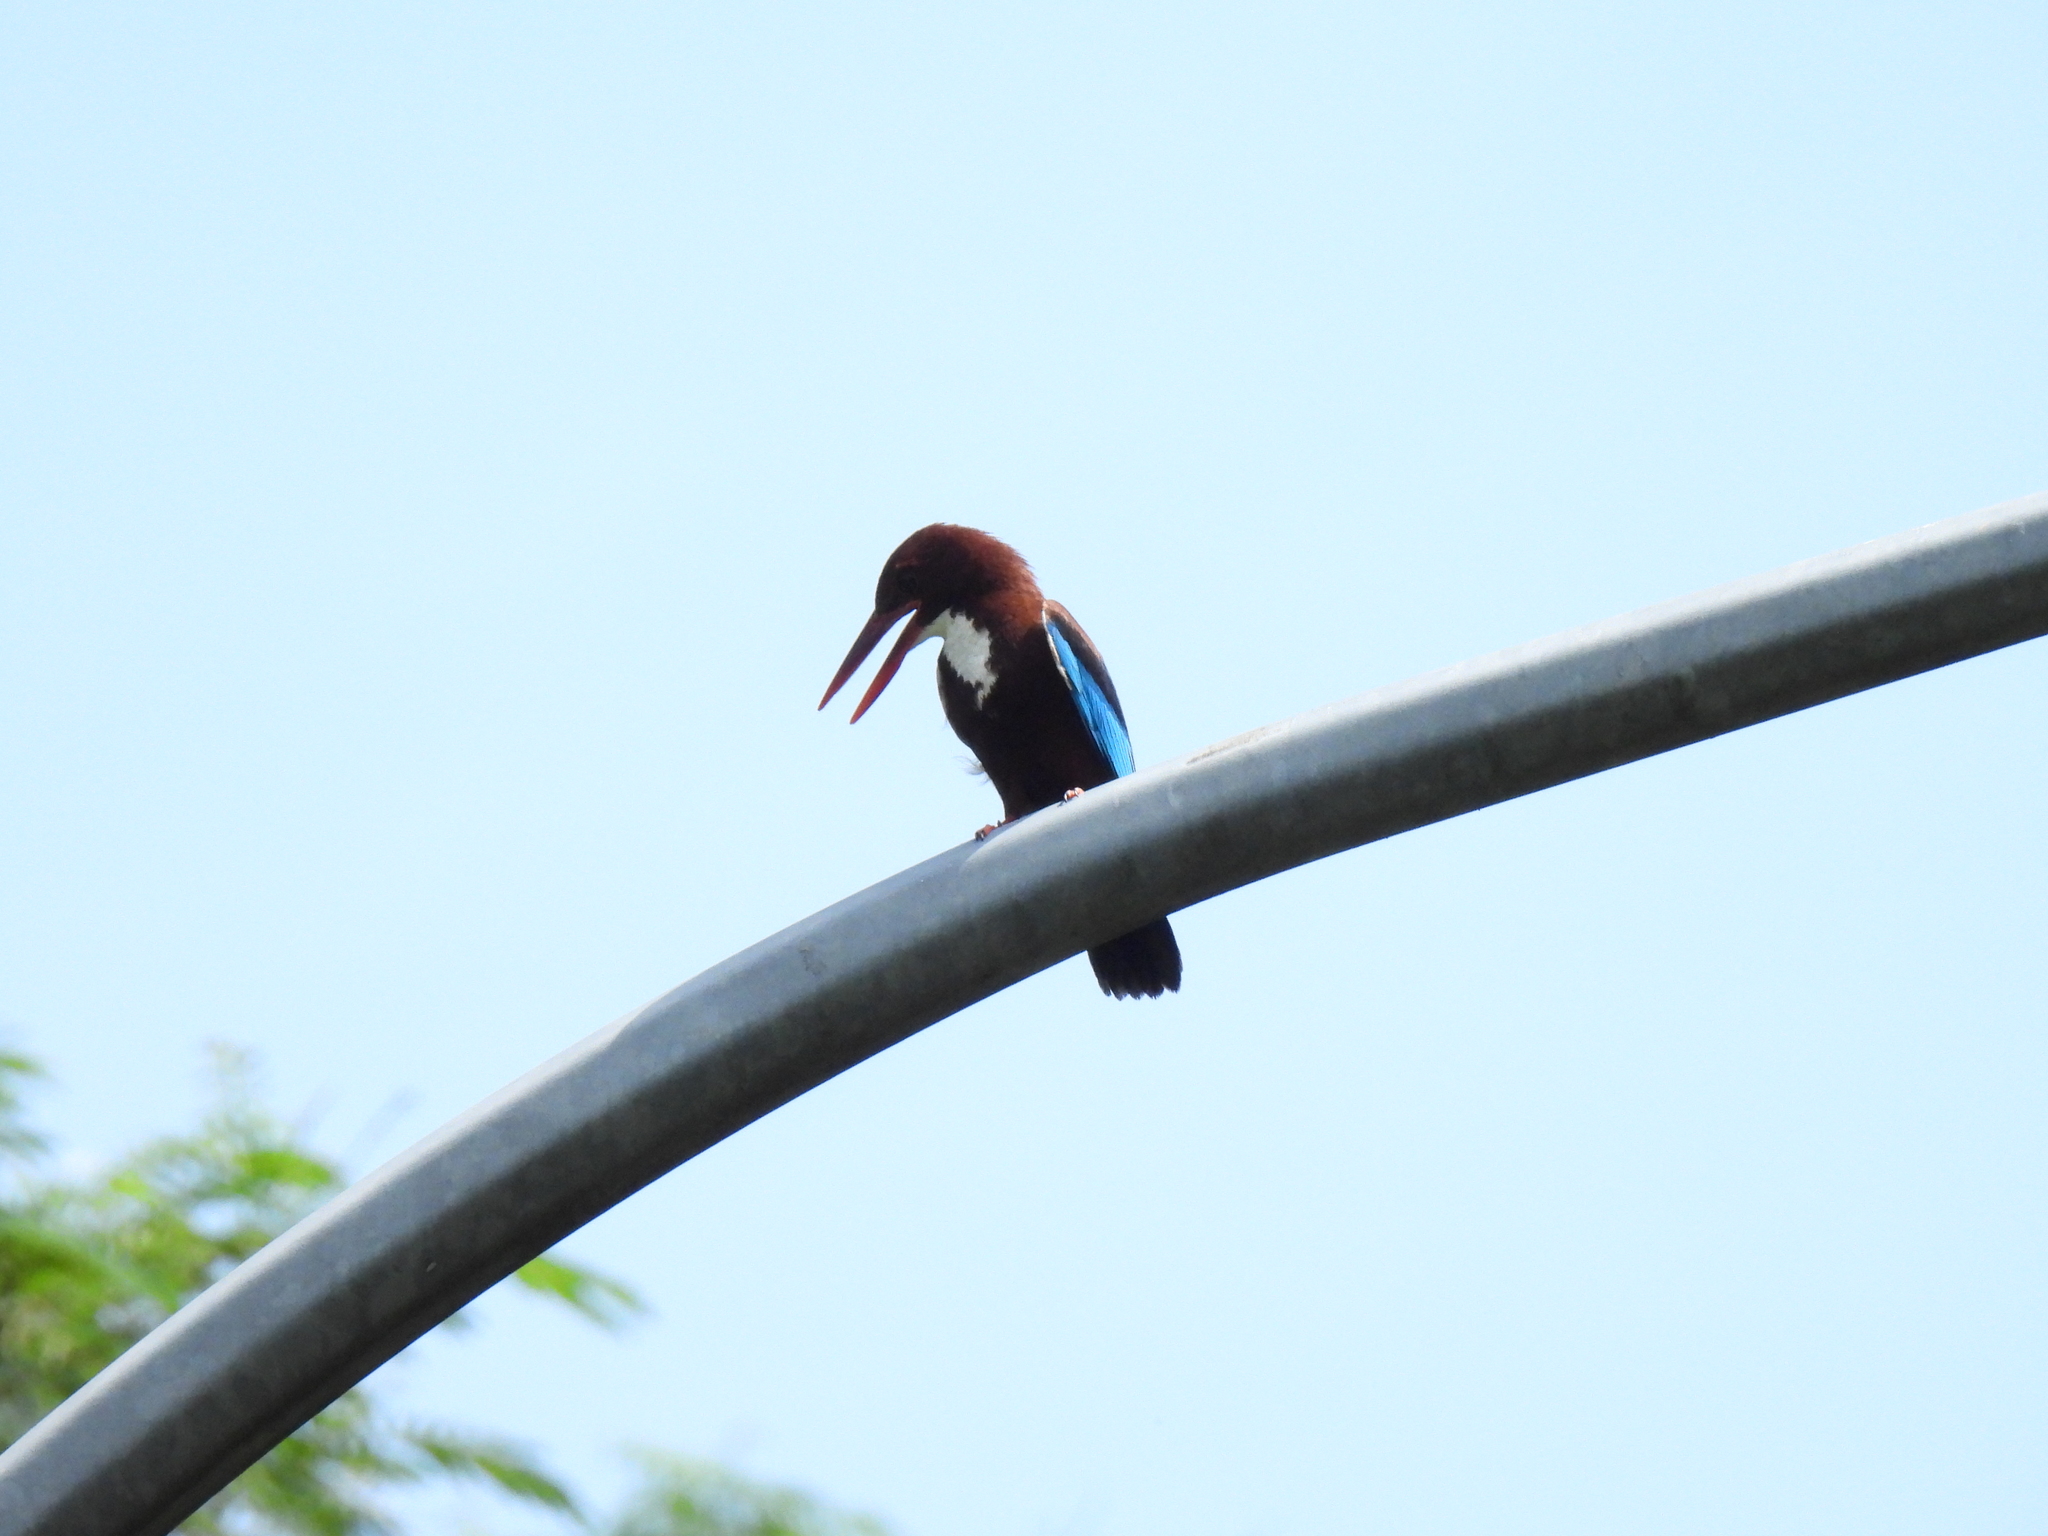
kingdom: Animalia
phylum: Chordata
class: Aves
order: Coraciiformes
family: Alcedinidae
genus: Halcyon
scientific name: Halcyon smyrnensis
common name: White-throated kingfisher
